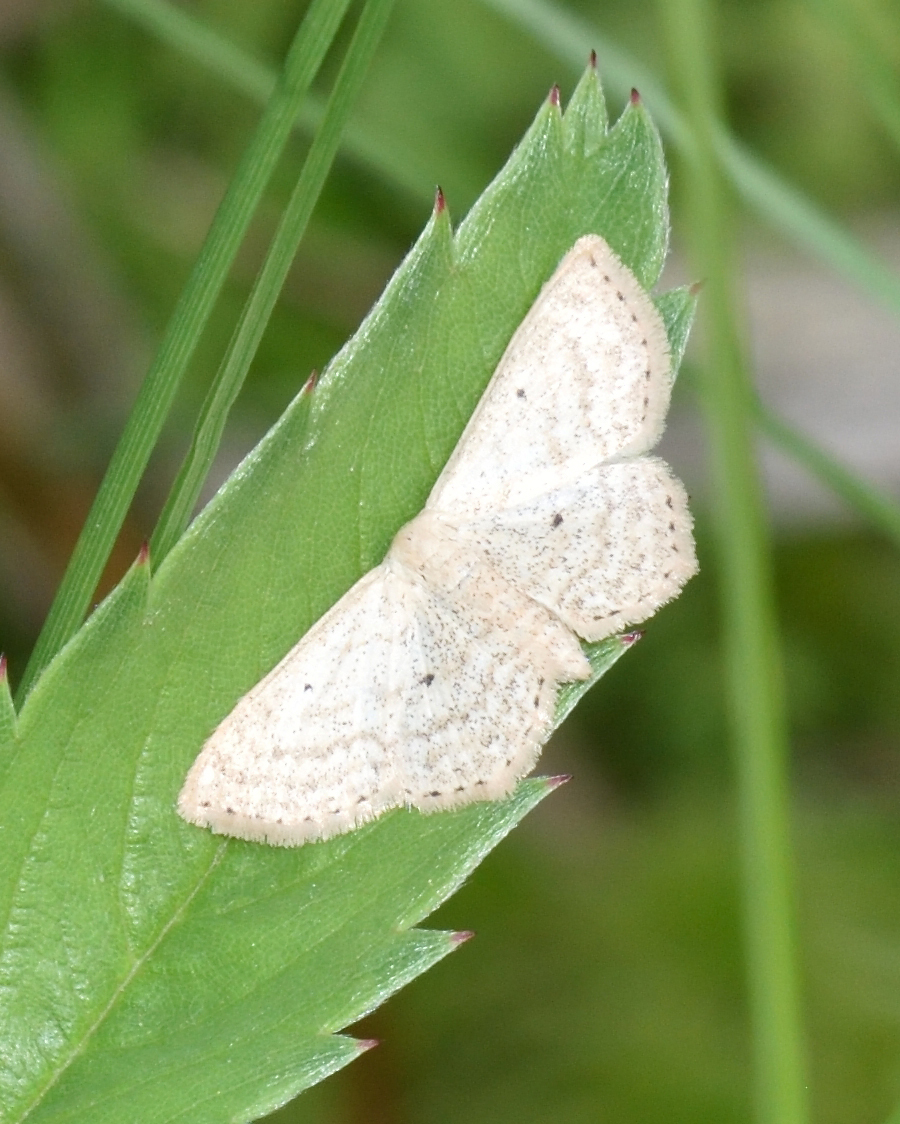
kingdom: Animalia
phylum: Arthropoda
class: Insecta
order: Lepidoptera
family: Geometridae
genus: Scopula
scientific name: Scopula corrivalaria
